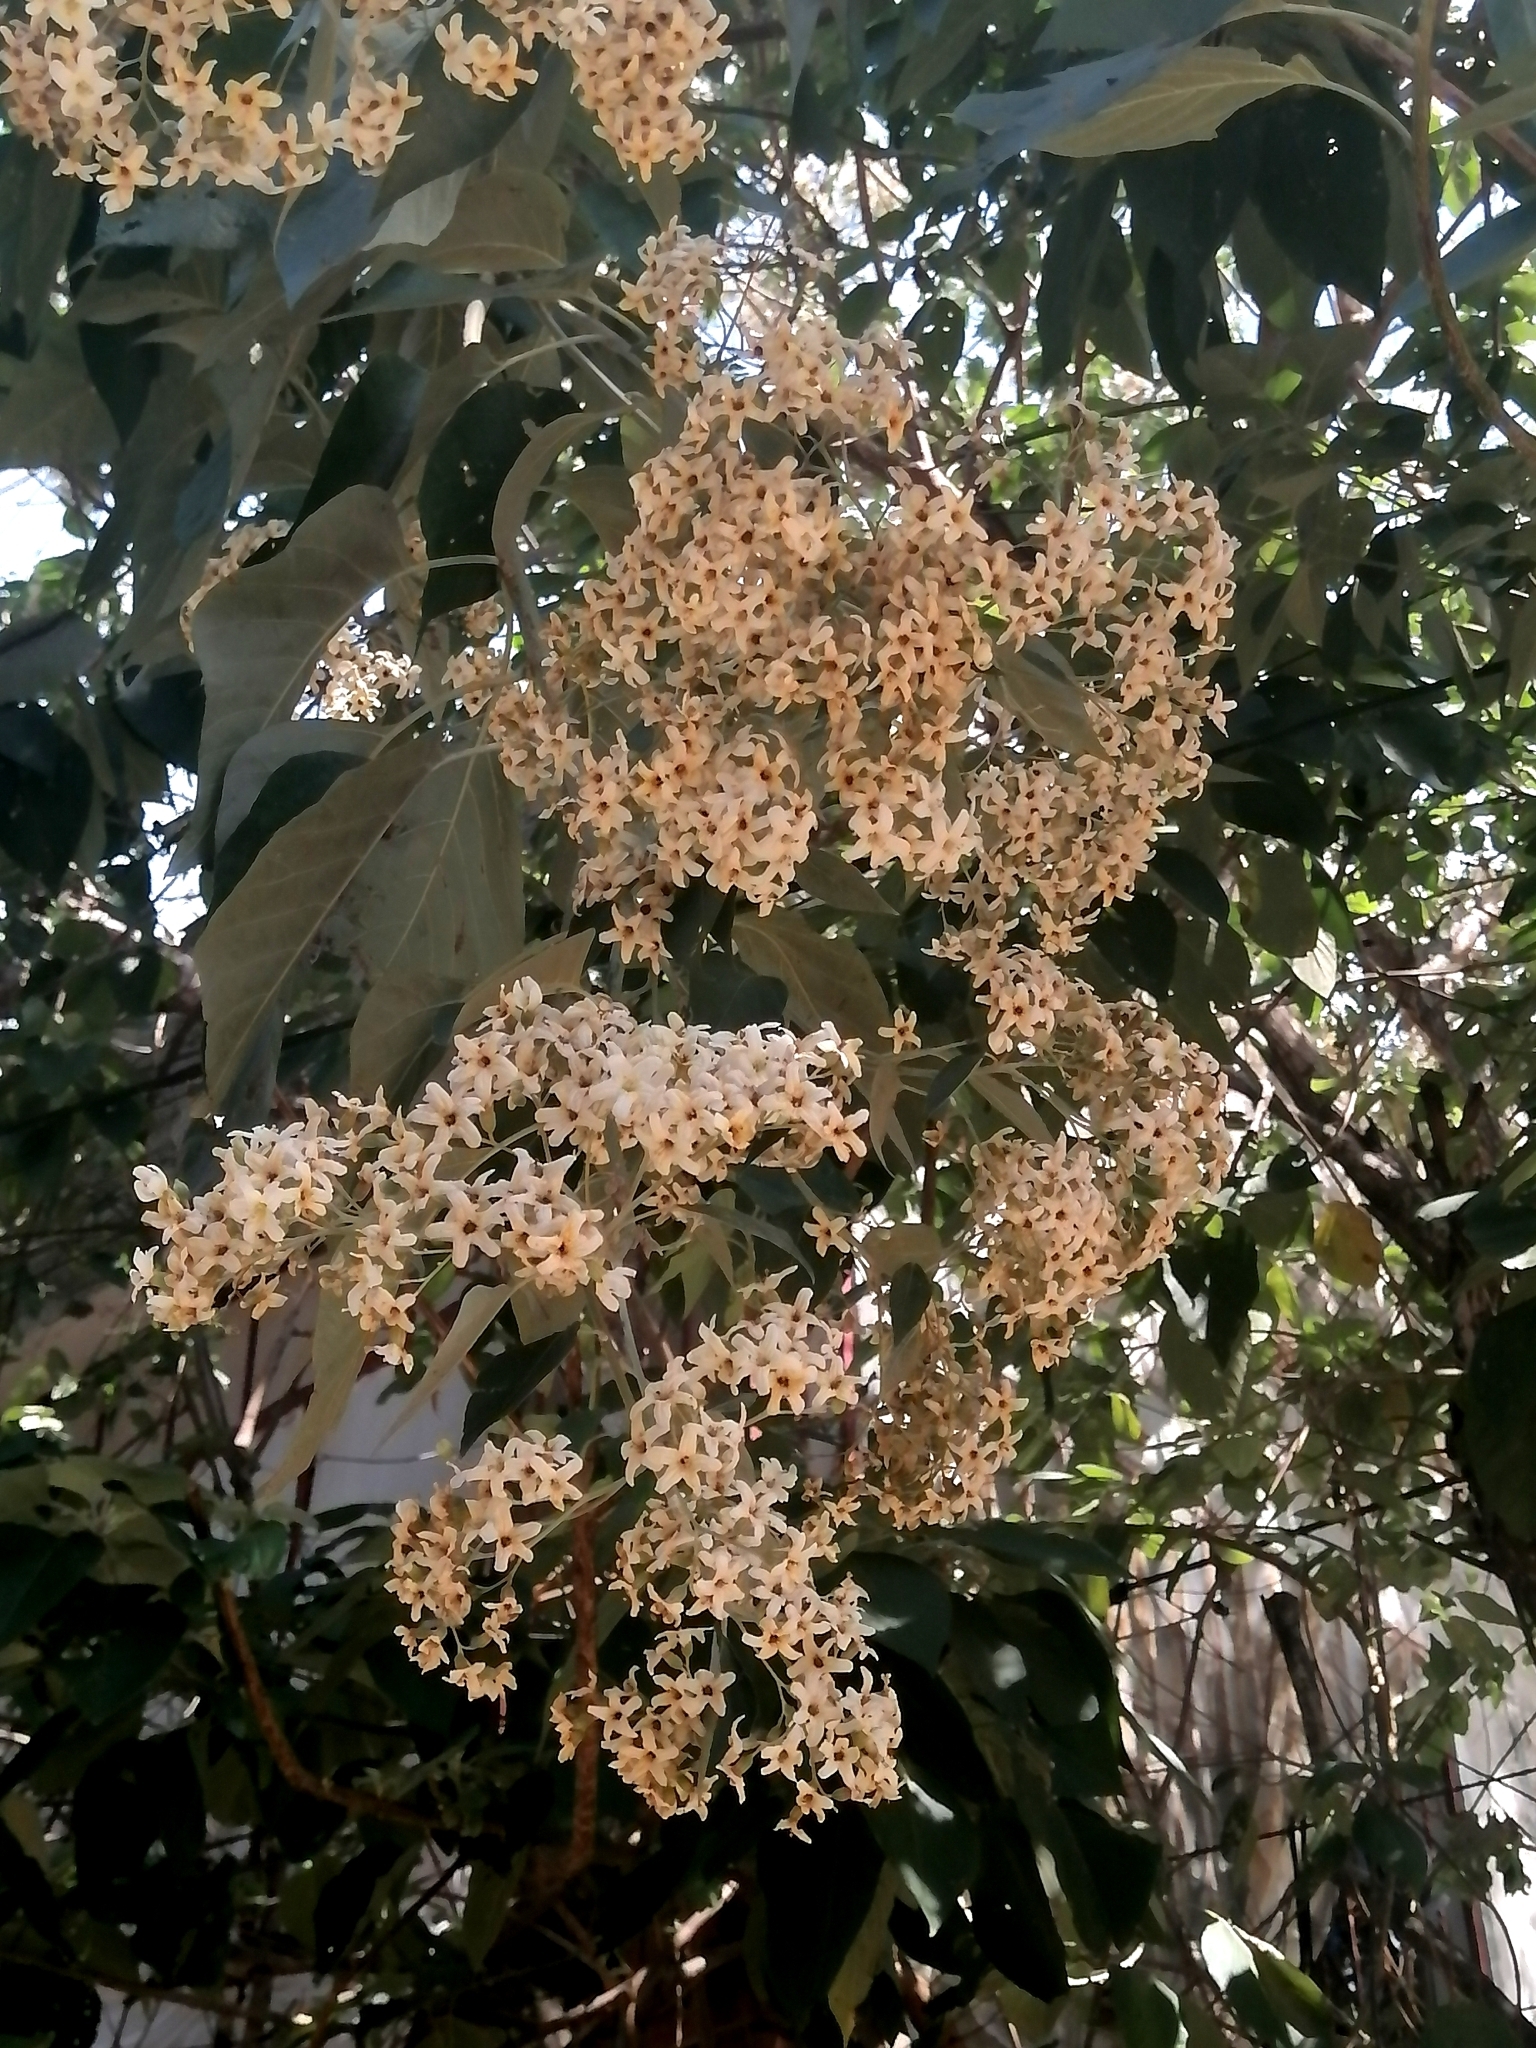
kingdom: Plantae
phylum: Tracheophyta
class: Magnoliopsida
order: Boraginales
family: Cordiaceae
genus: Cordia
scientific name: Cordia elaeagnoides
